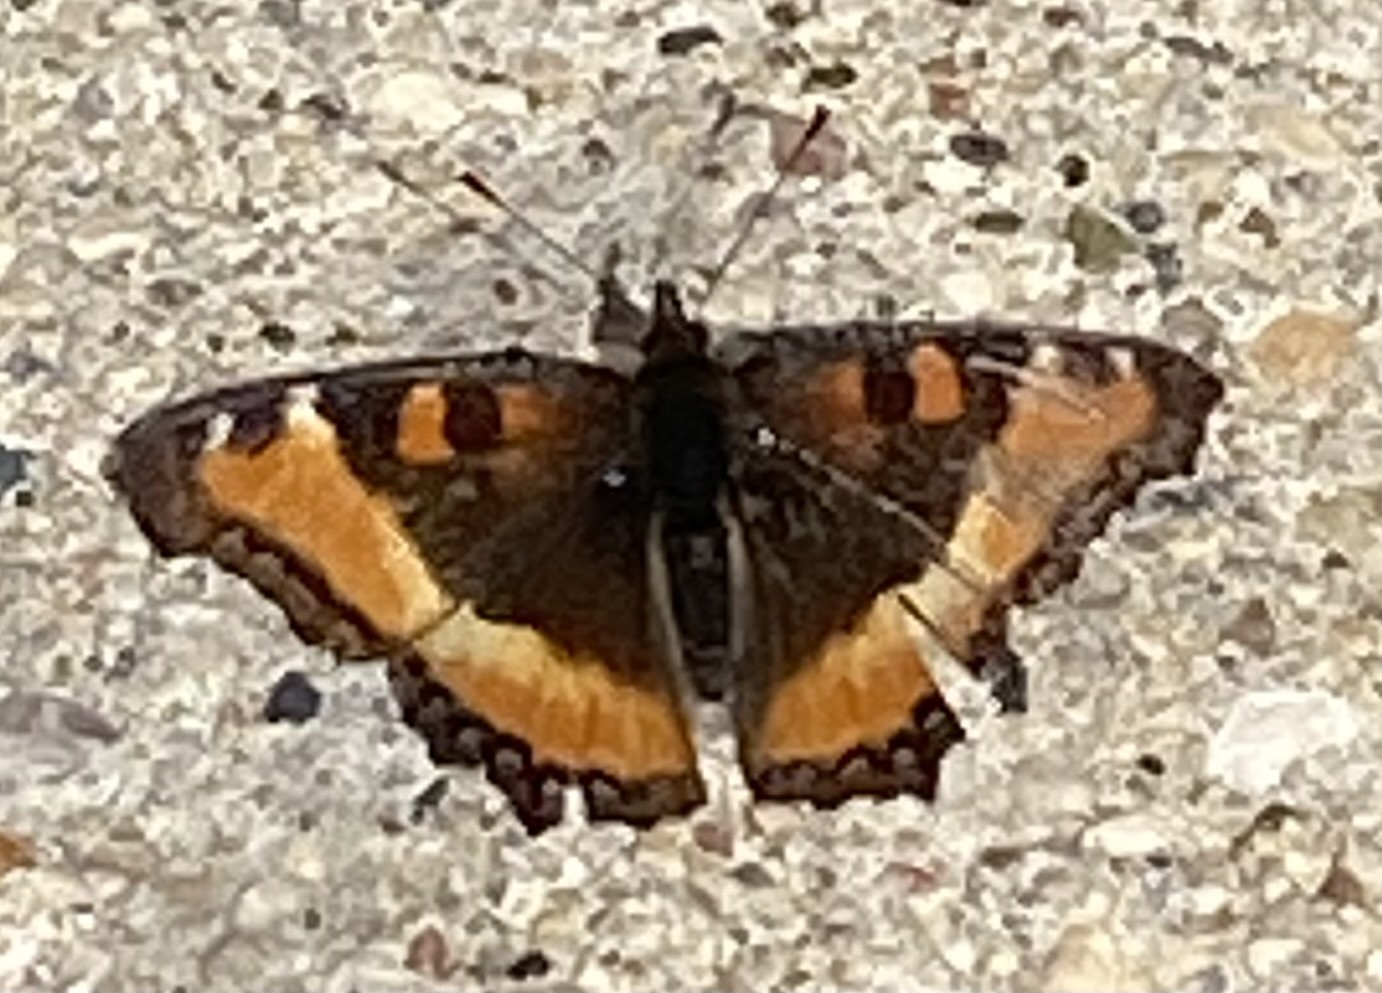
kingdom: Animalia
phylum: Arthropoda
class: Insecta
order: Lepidoptera
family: Nymphalidae
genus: Aglais
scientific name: Aglais milberti
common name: Milbert's tortoiseshell
